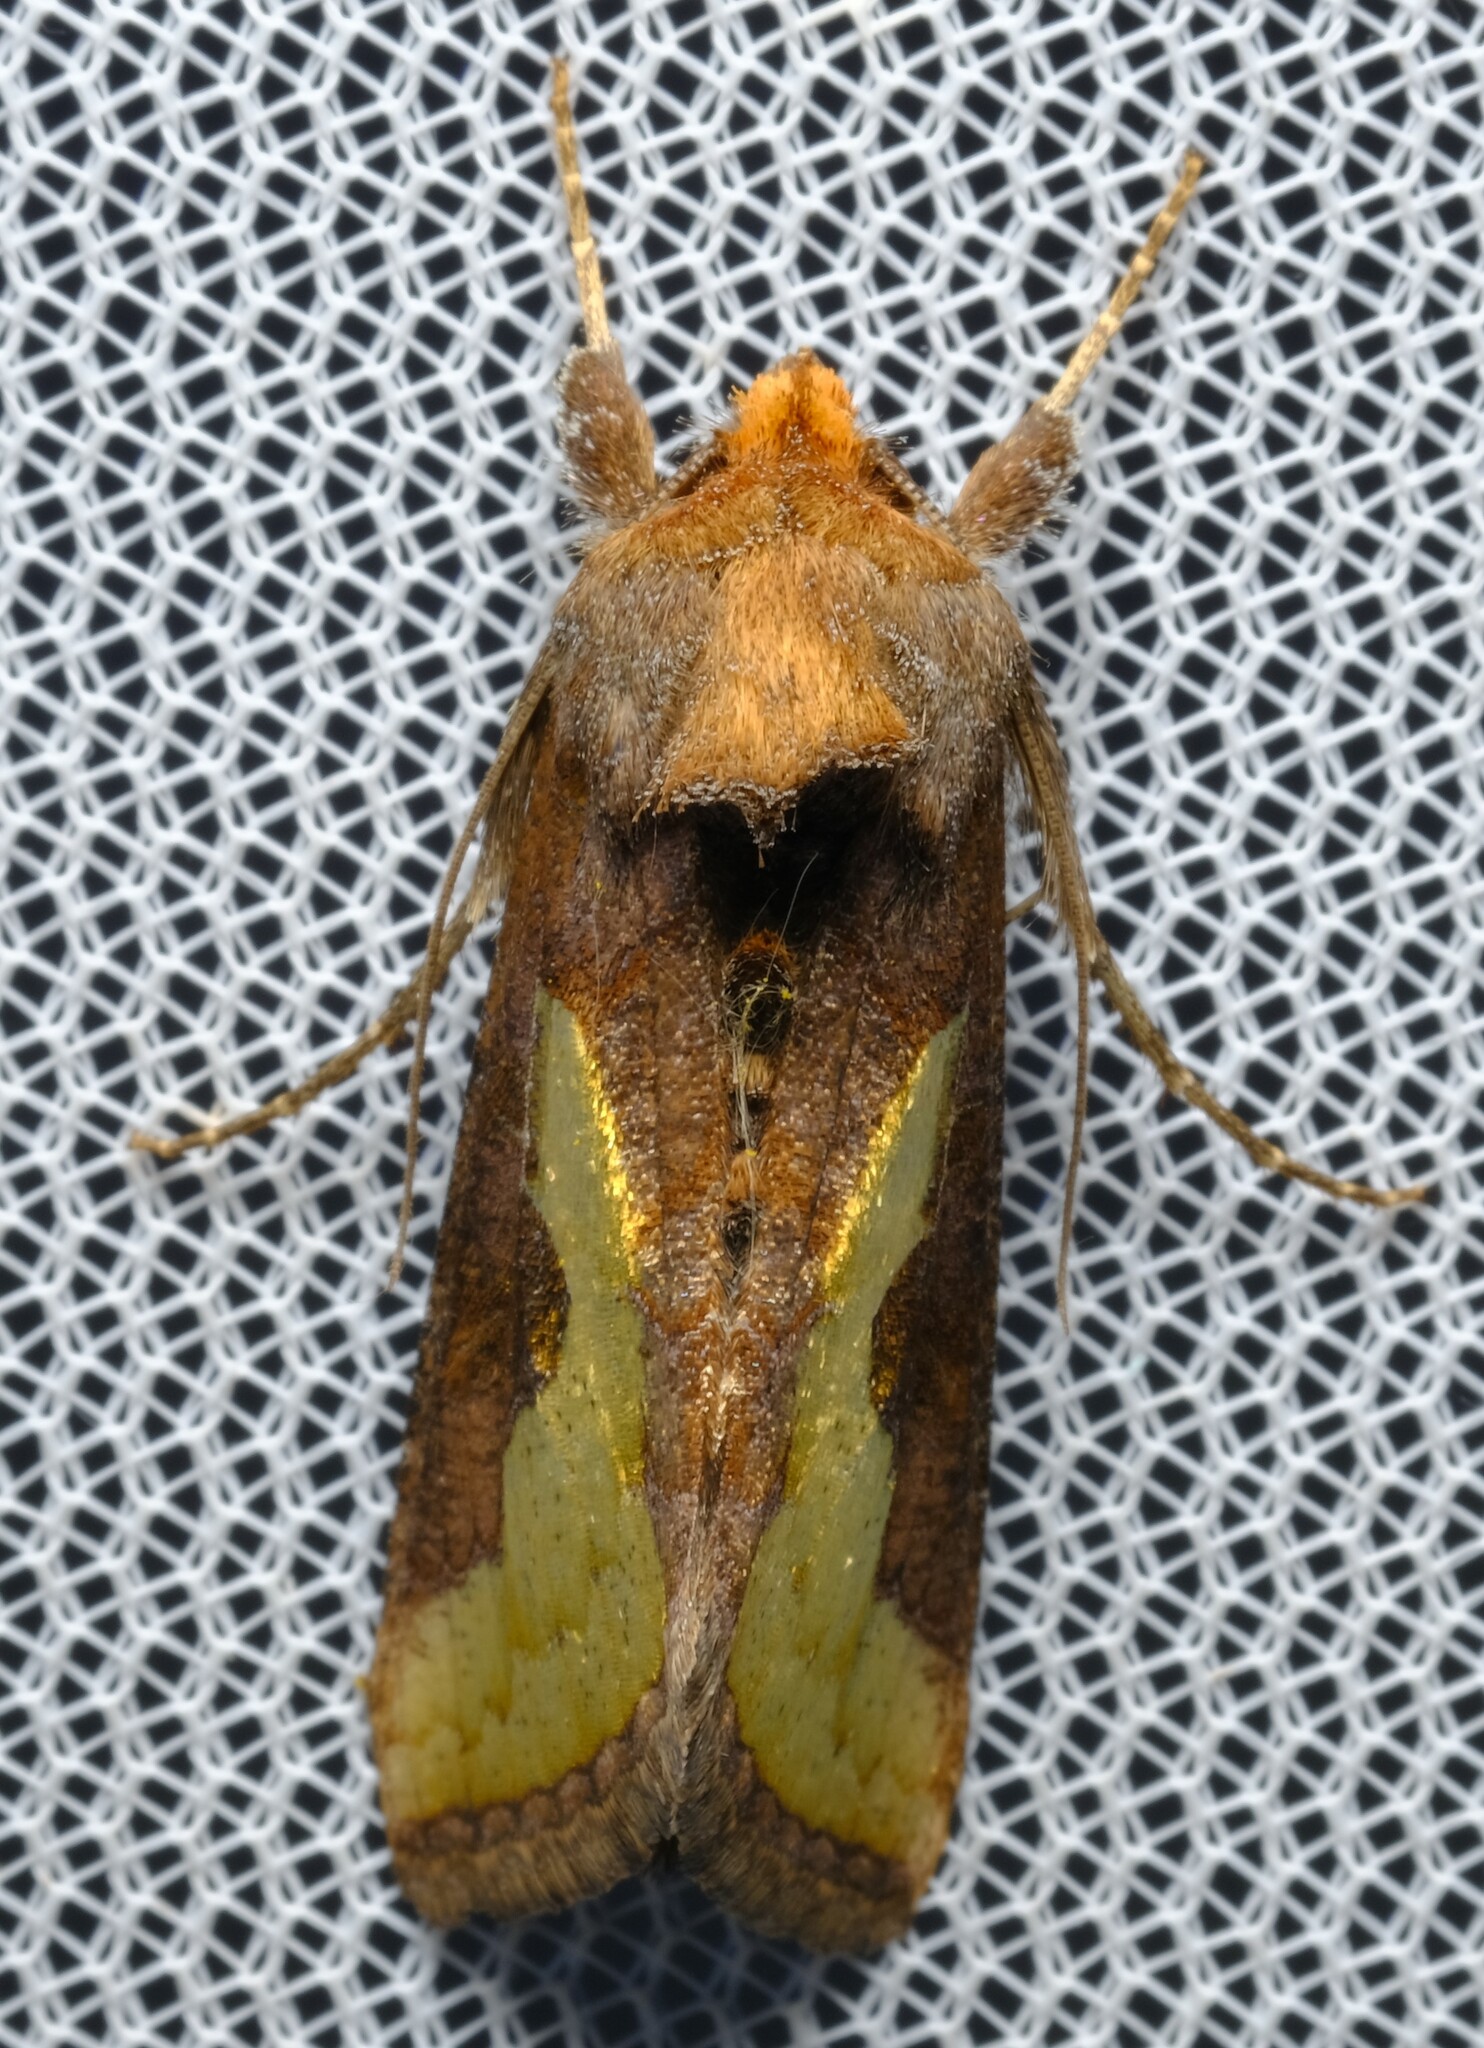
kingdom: Animalia
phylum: Arthropoda
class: Insecta
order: Lepidoptera
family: Noctuidae
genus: Thysanoplusia
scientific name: Thysanoplusia orichalcea
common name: Slender burnished brass, golden plusia
